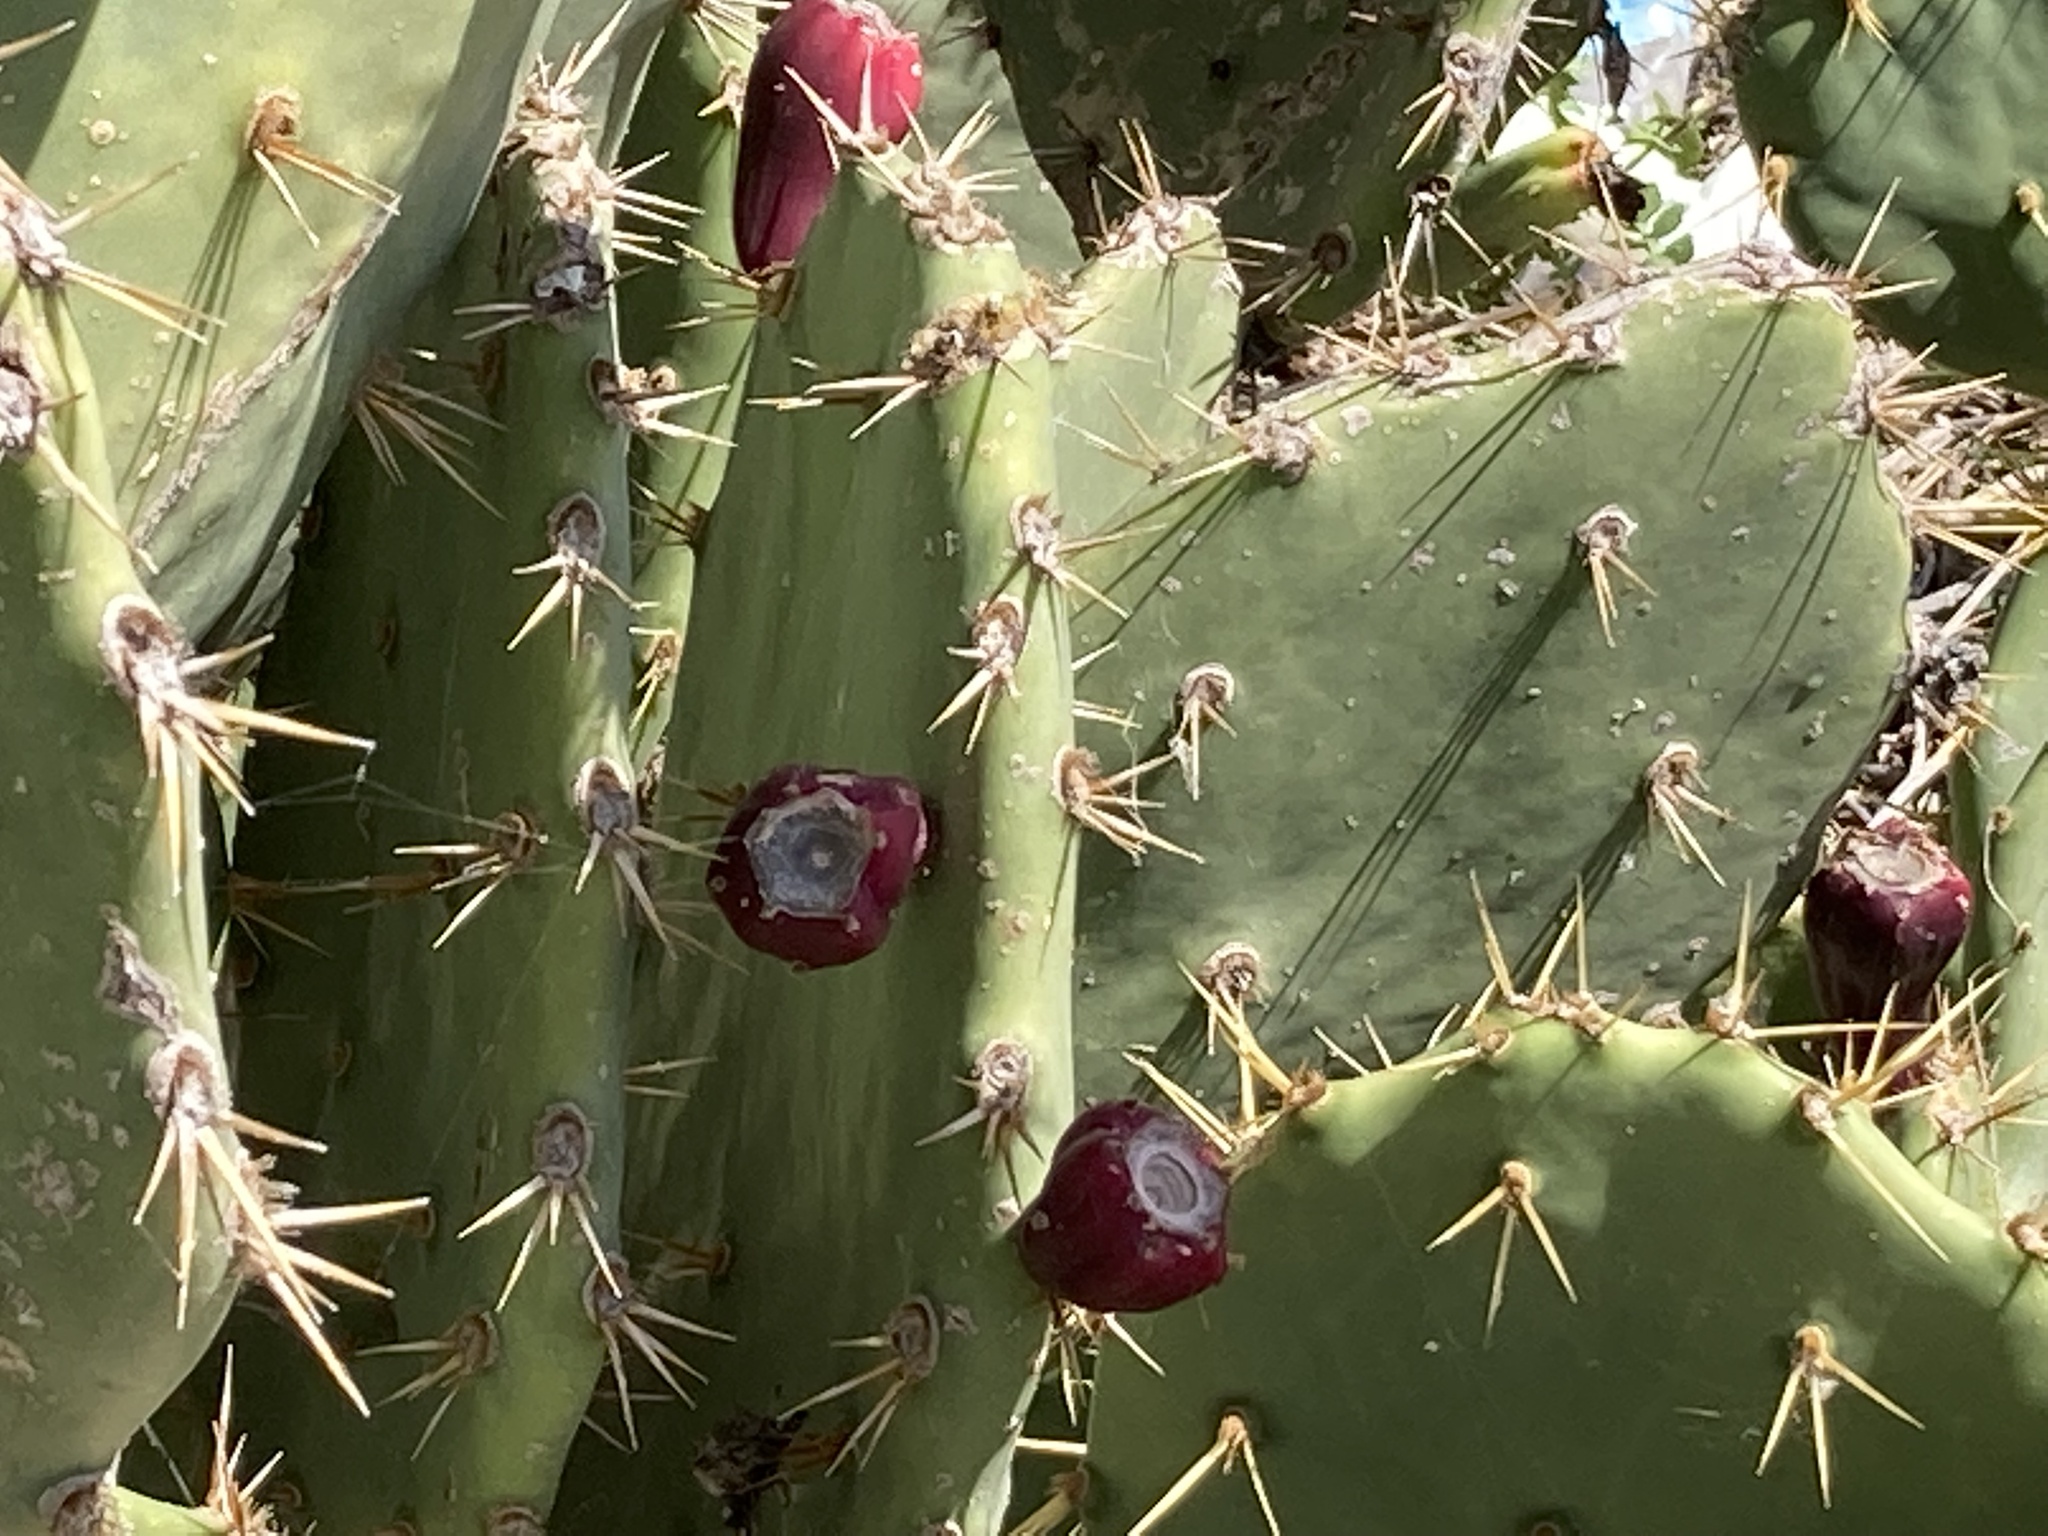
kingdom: Plantae
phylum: Tracheophyta
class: Magnoliopsida
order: Caryophyllales
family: Cactaceae
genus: Opuntia
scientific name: Opuntia dillenii
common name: Sour prickle
